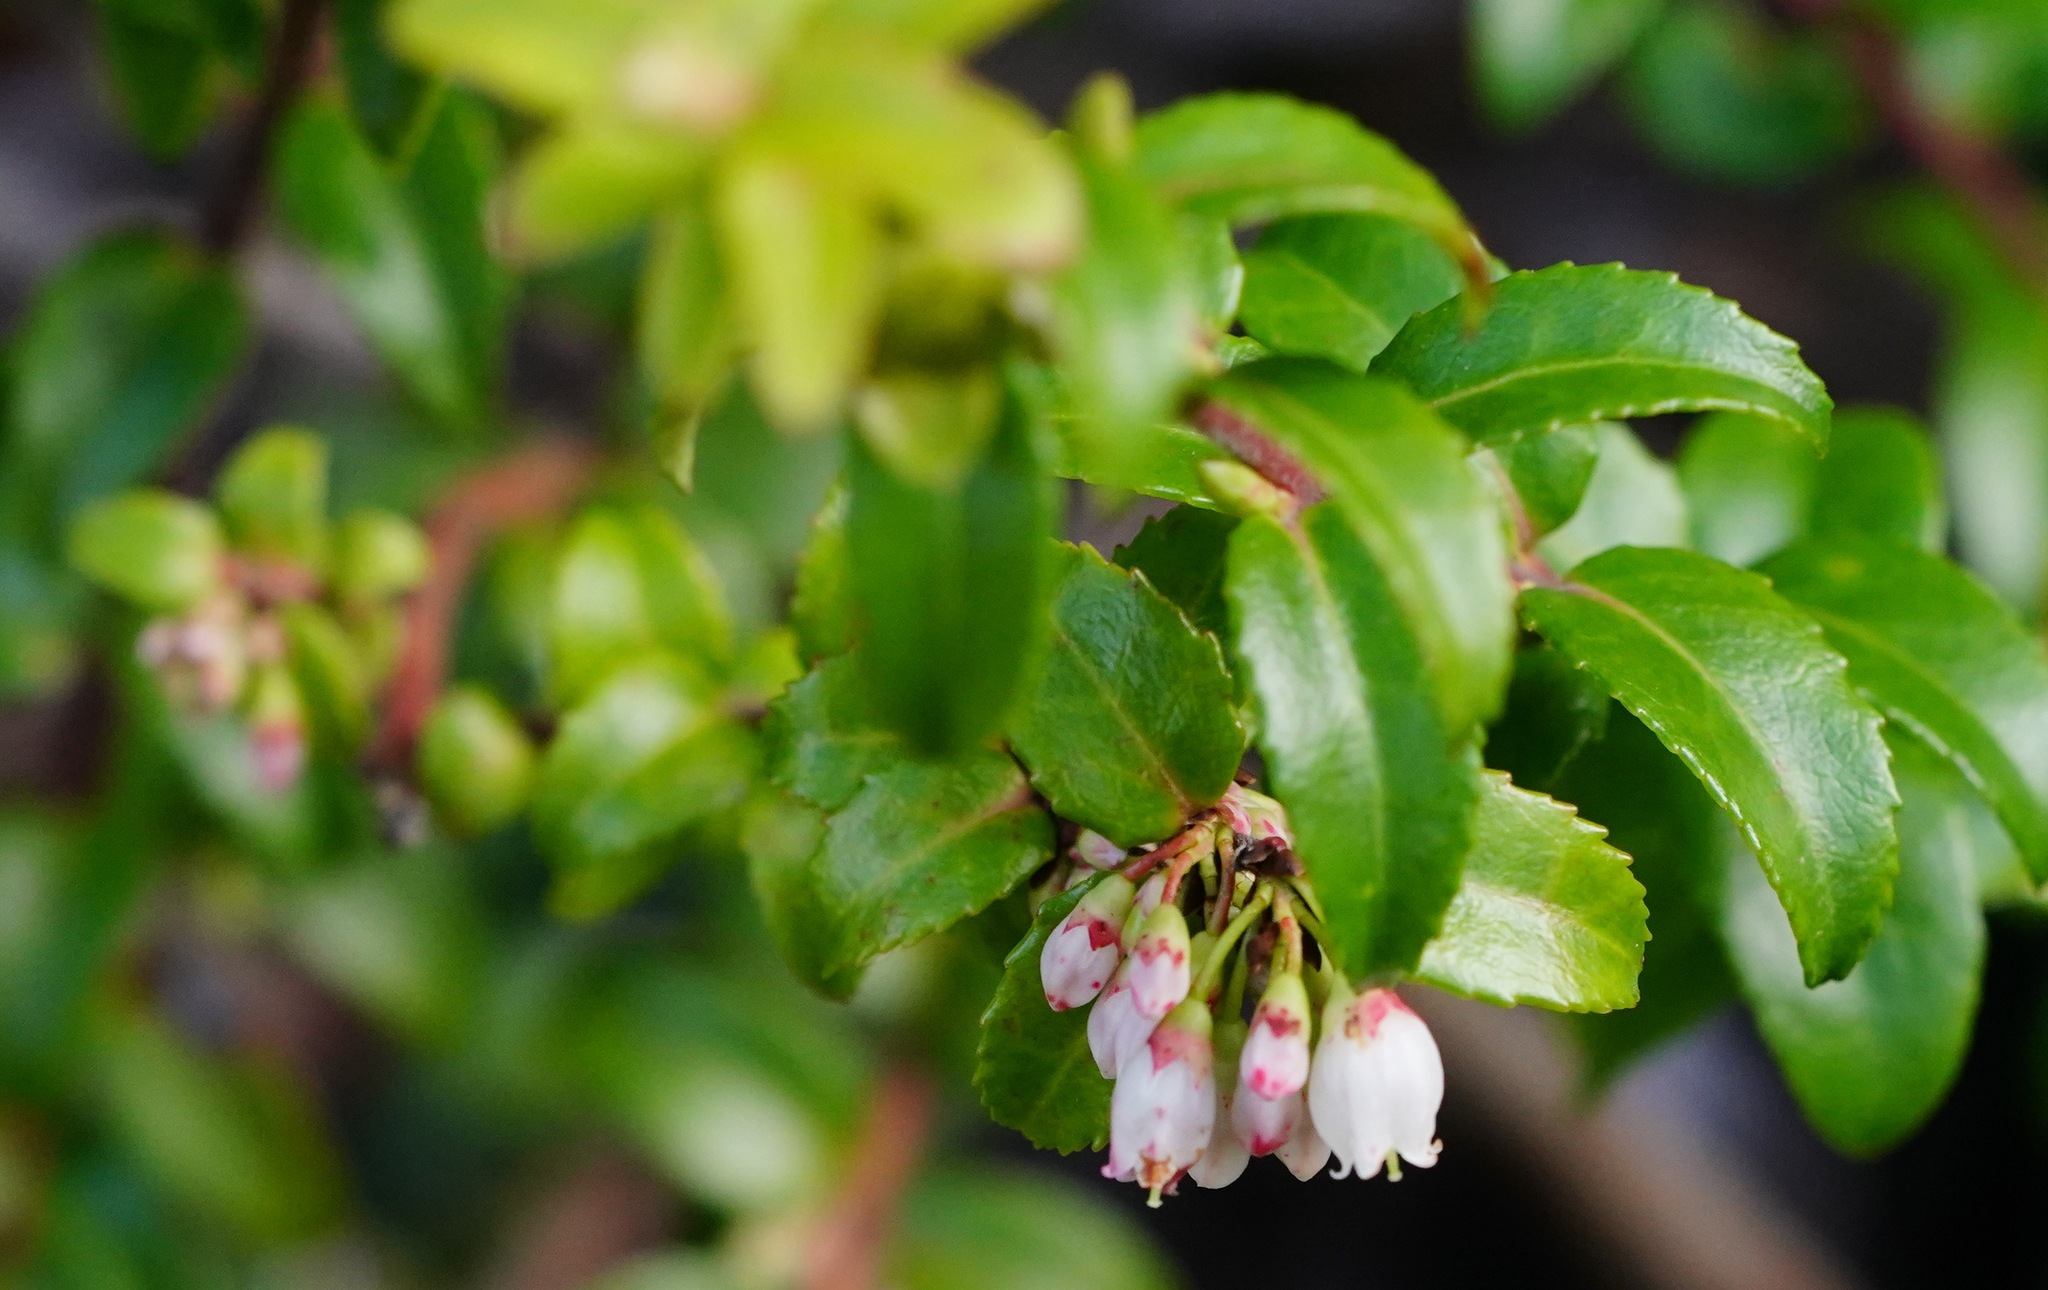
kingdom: Plantae
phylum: Tracheophyta
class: Magnoliopsida
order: Ericales
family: Ericaceae
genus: Vaccinium
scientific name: Vaccinium ovatum
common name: California-huckleberry
